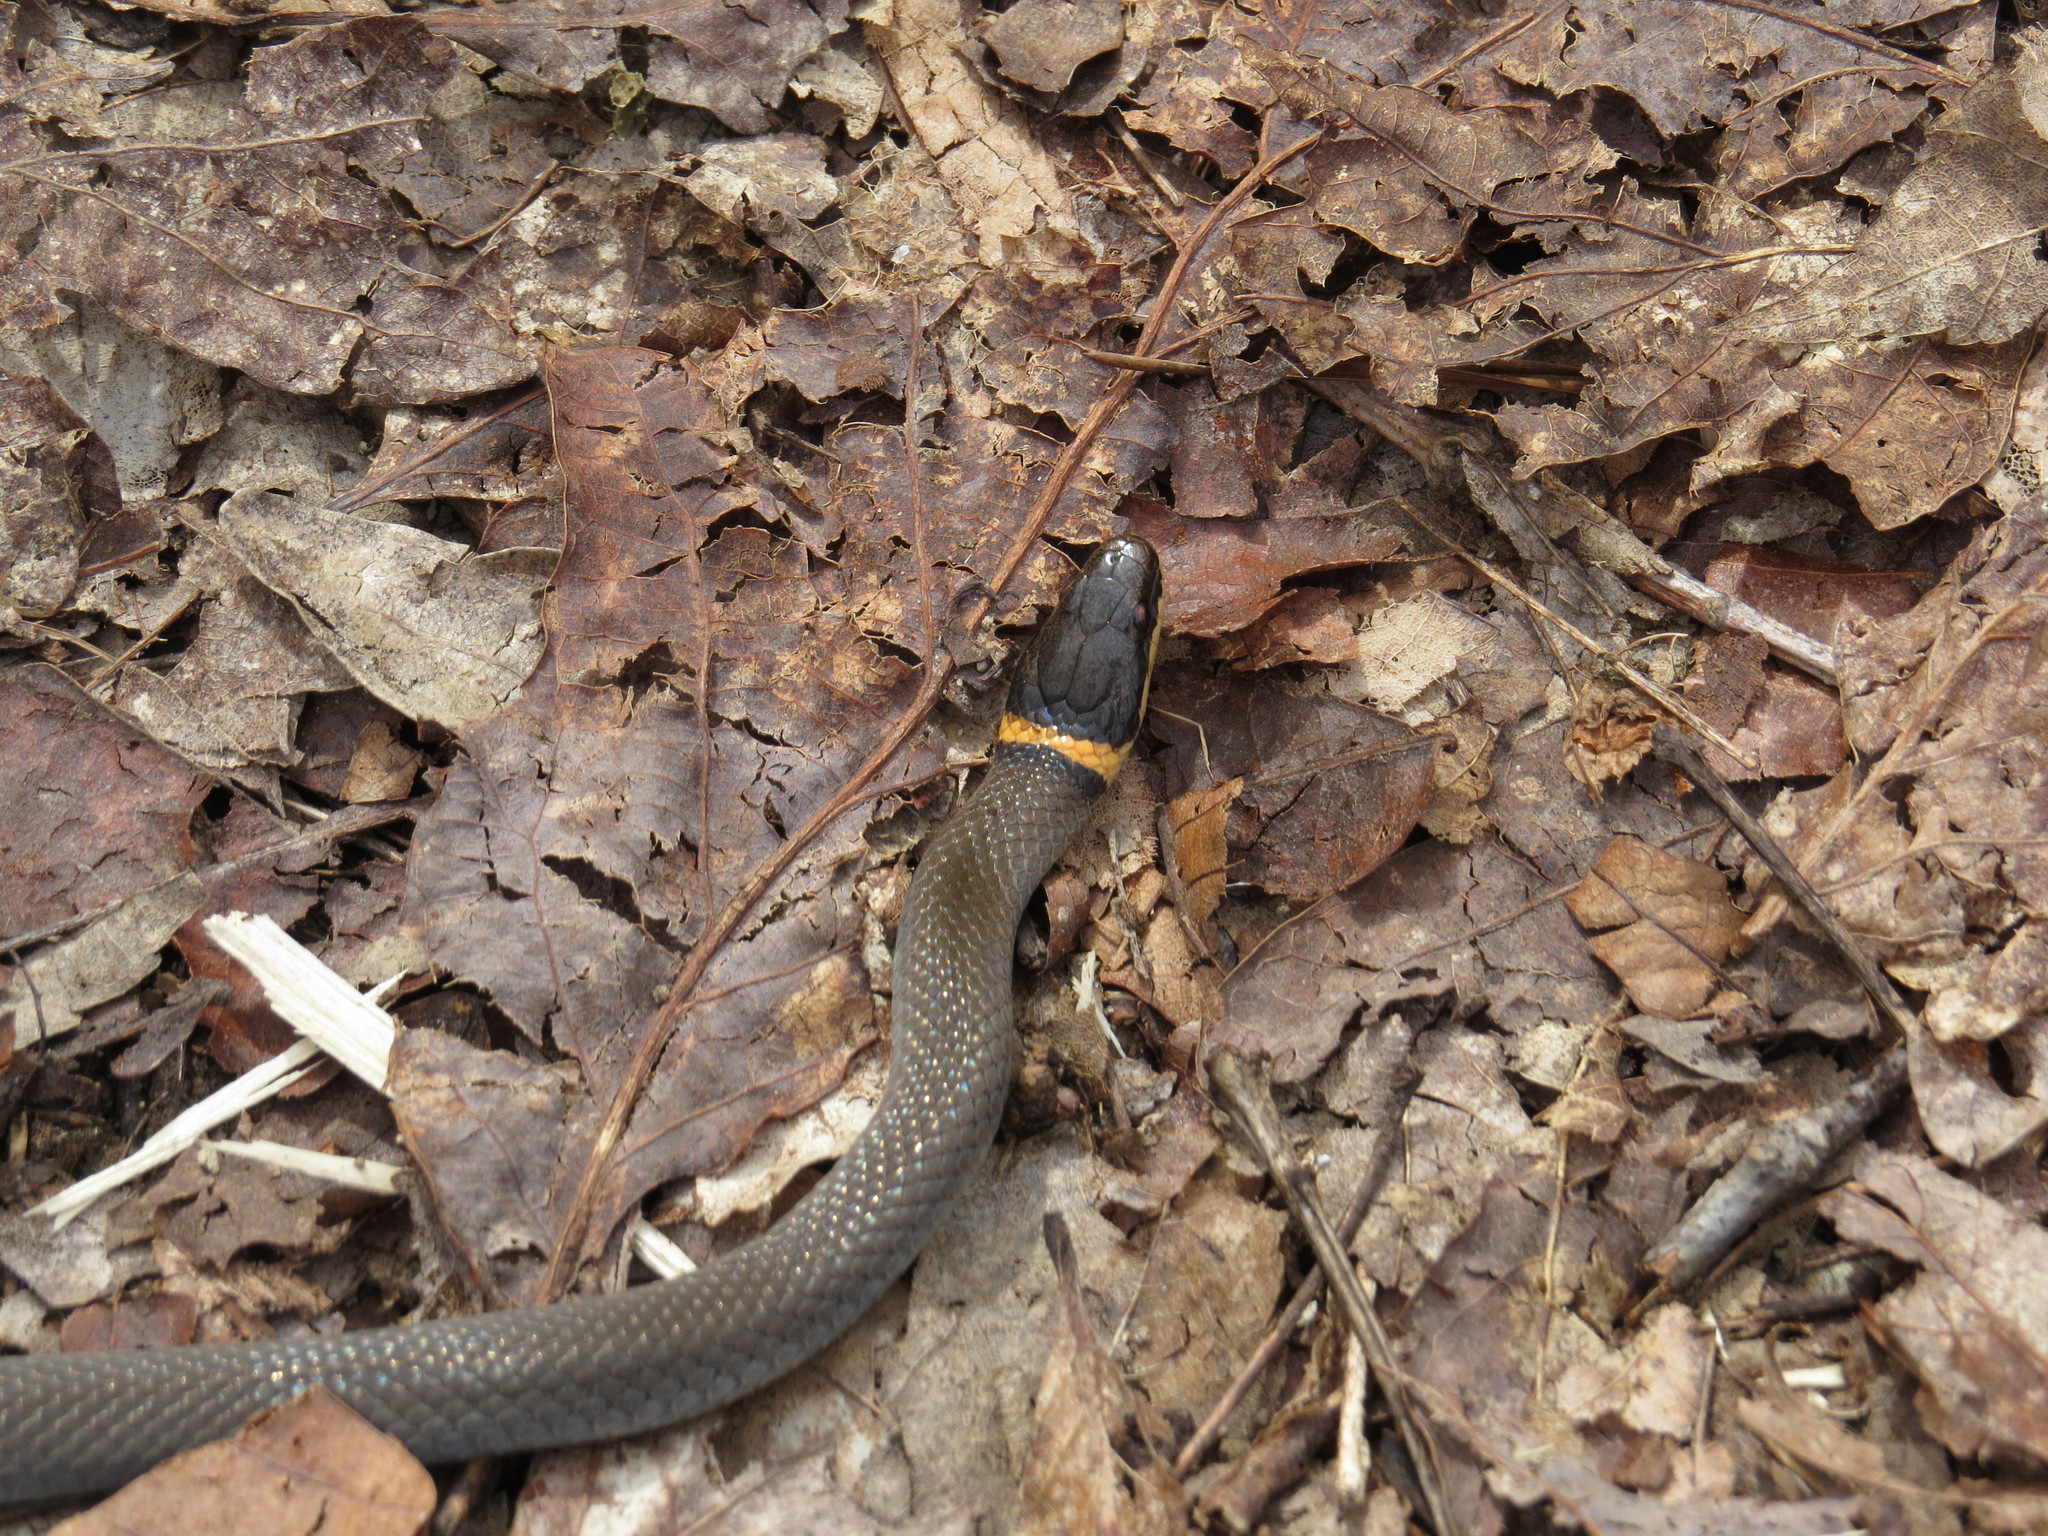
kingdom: Animalia
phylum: Chordata
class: Squamata
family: Colubridae
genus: Diadophis
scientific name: Diadophis punctatus
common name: Ringneck snake
